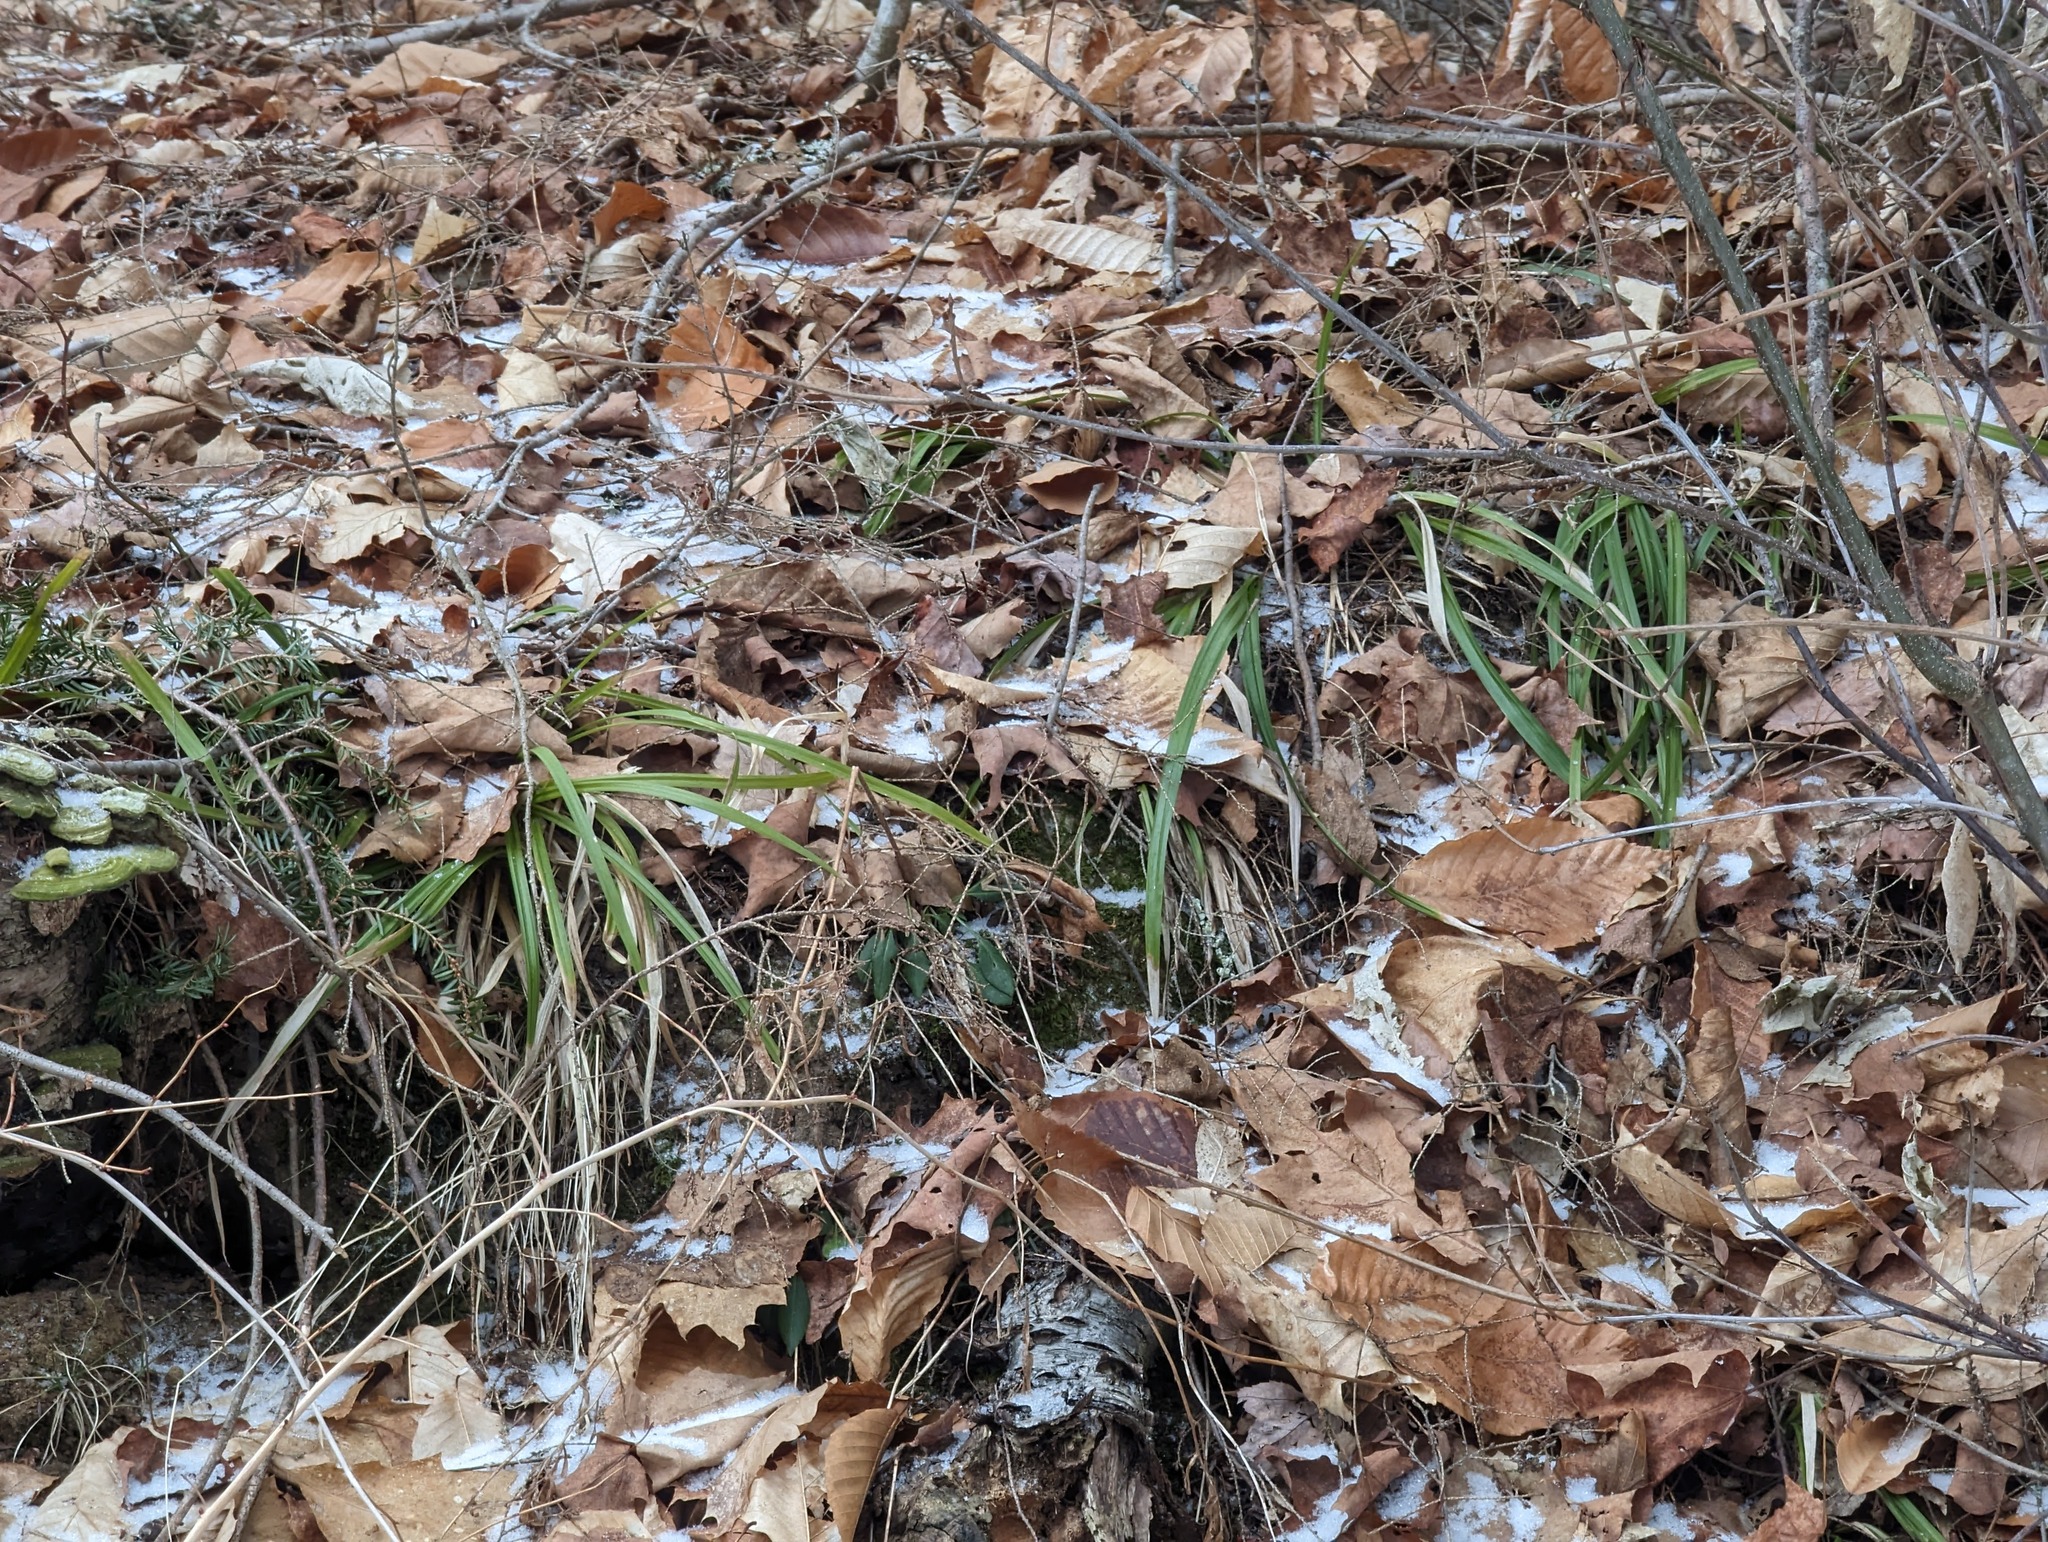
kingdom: Plantae
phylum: Tracheophyta
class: Magnoliopsida
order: Fagales
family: Fagaceae
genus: Fagus
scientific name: Fagus grandifolia
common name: American beech
